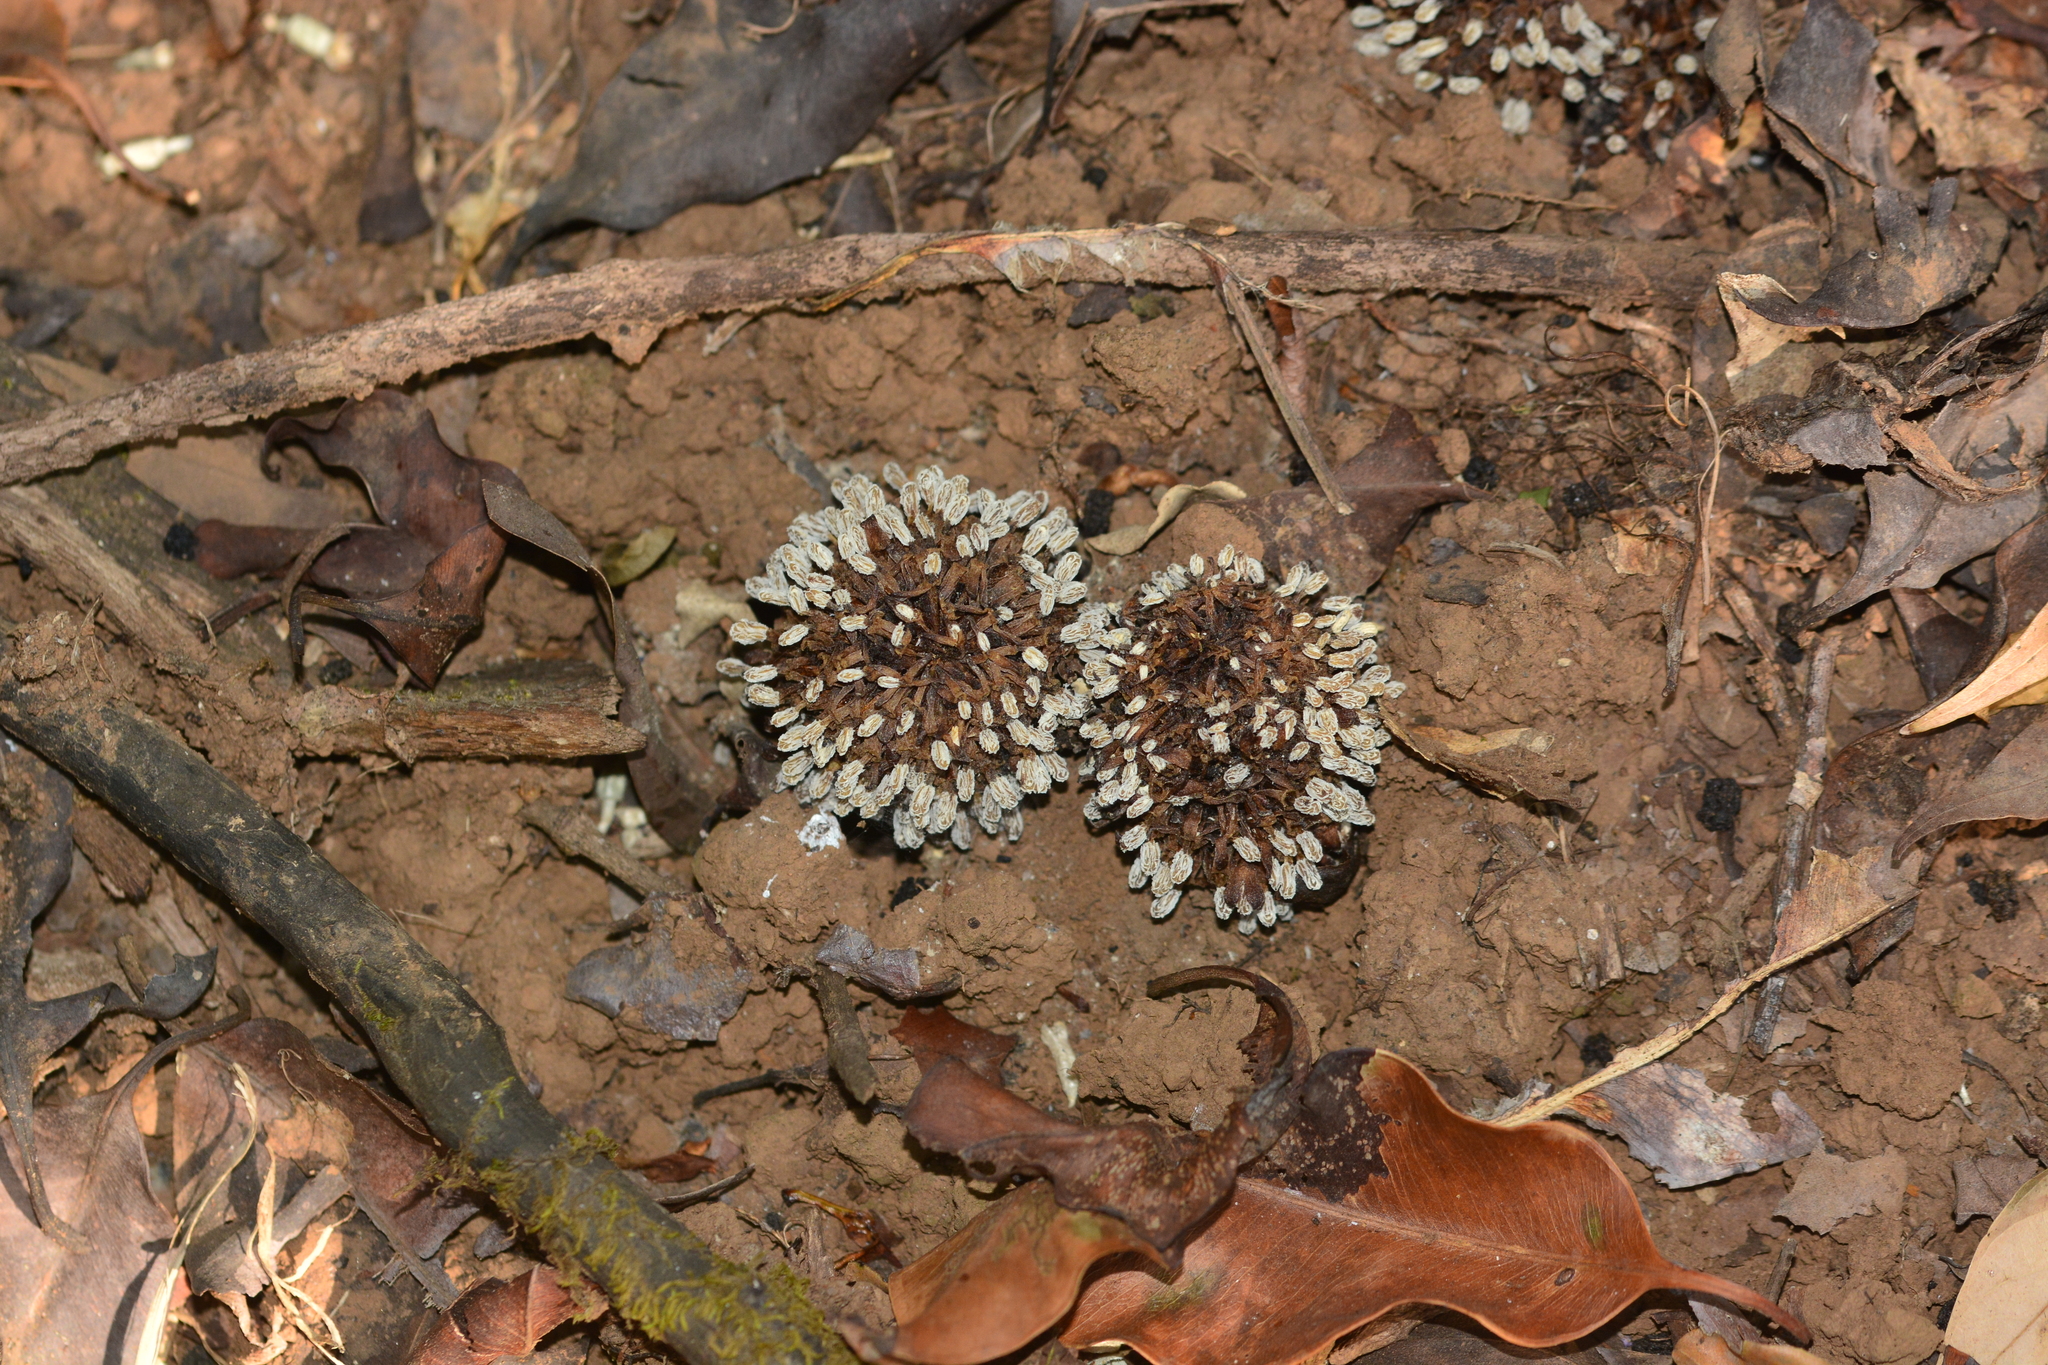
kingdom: Plantae
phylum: Tracheophyta
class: Magnoliopsida
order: Santalales
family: Balanophoraceae
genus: Balanophora
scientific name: Balanophora fungosa
